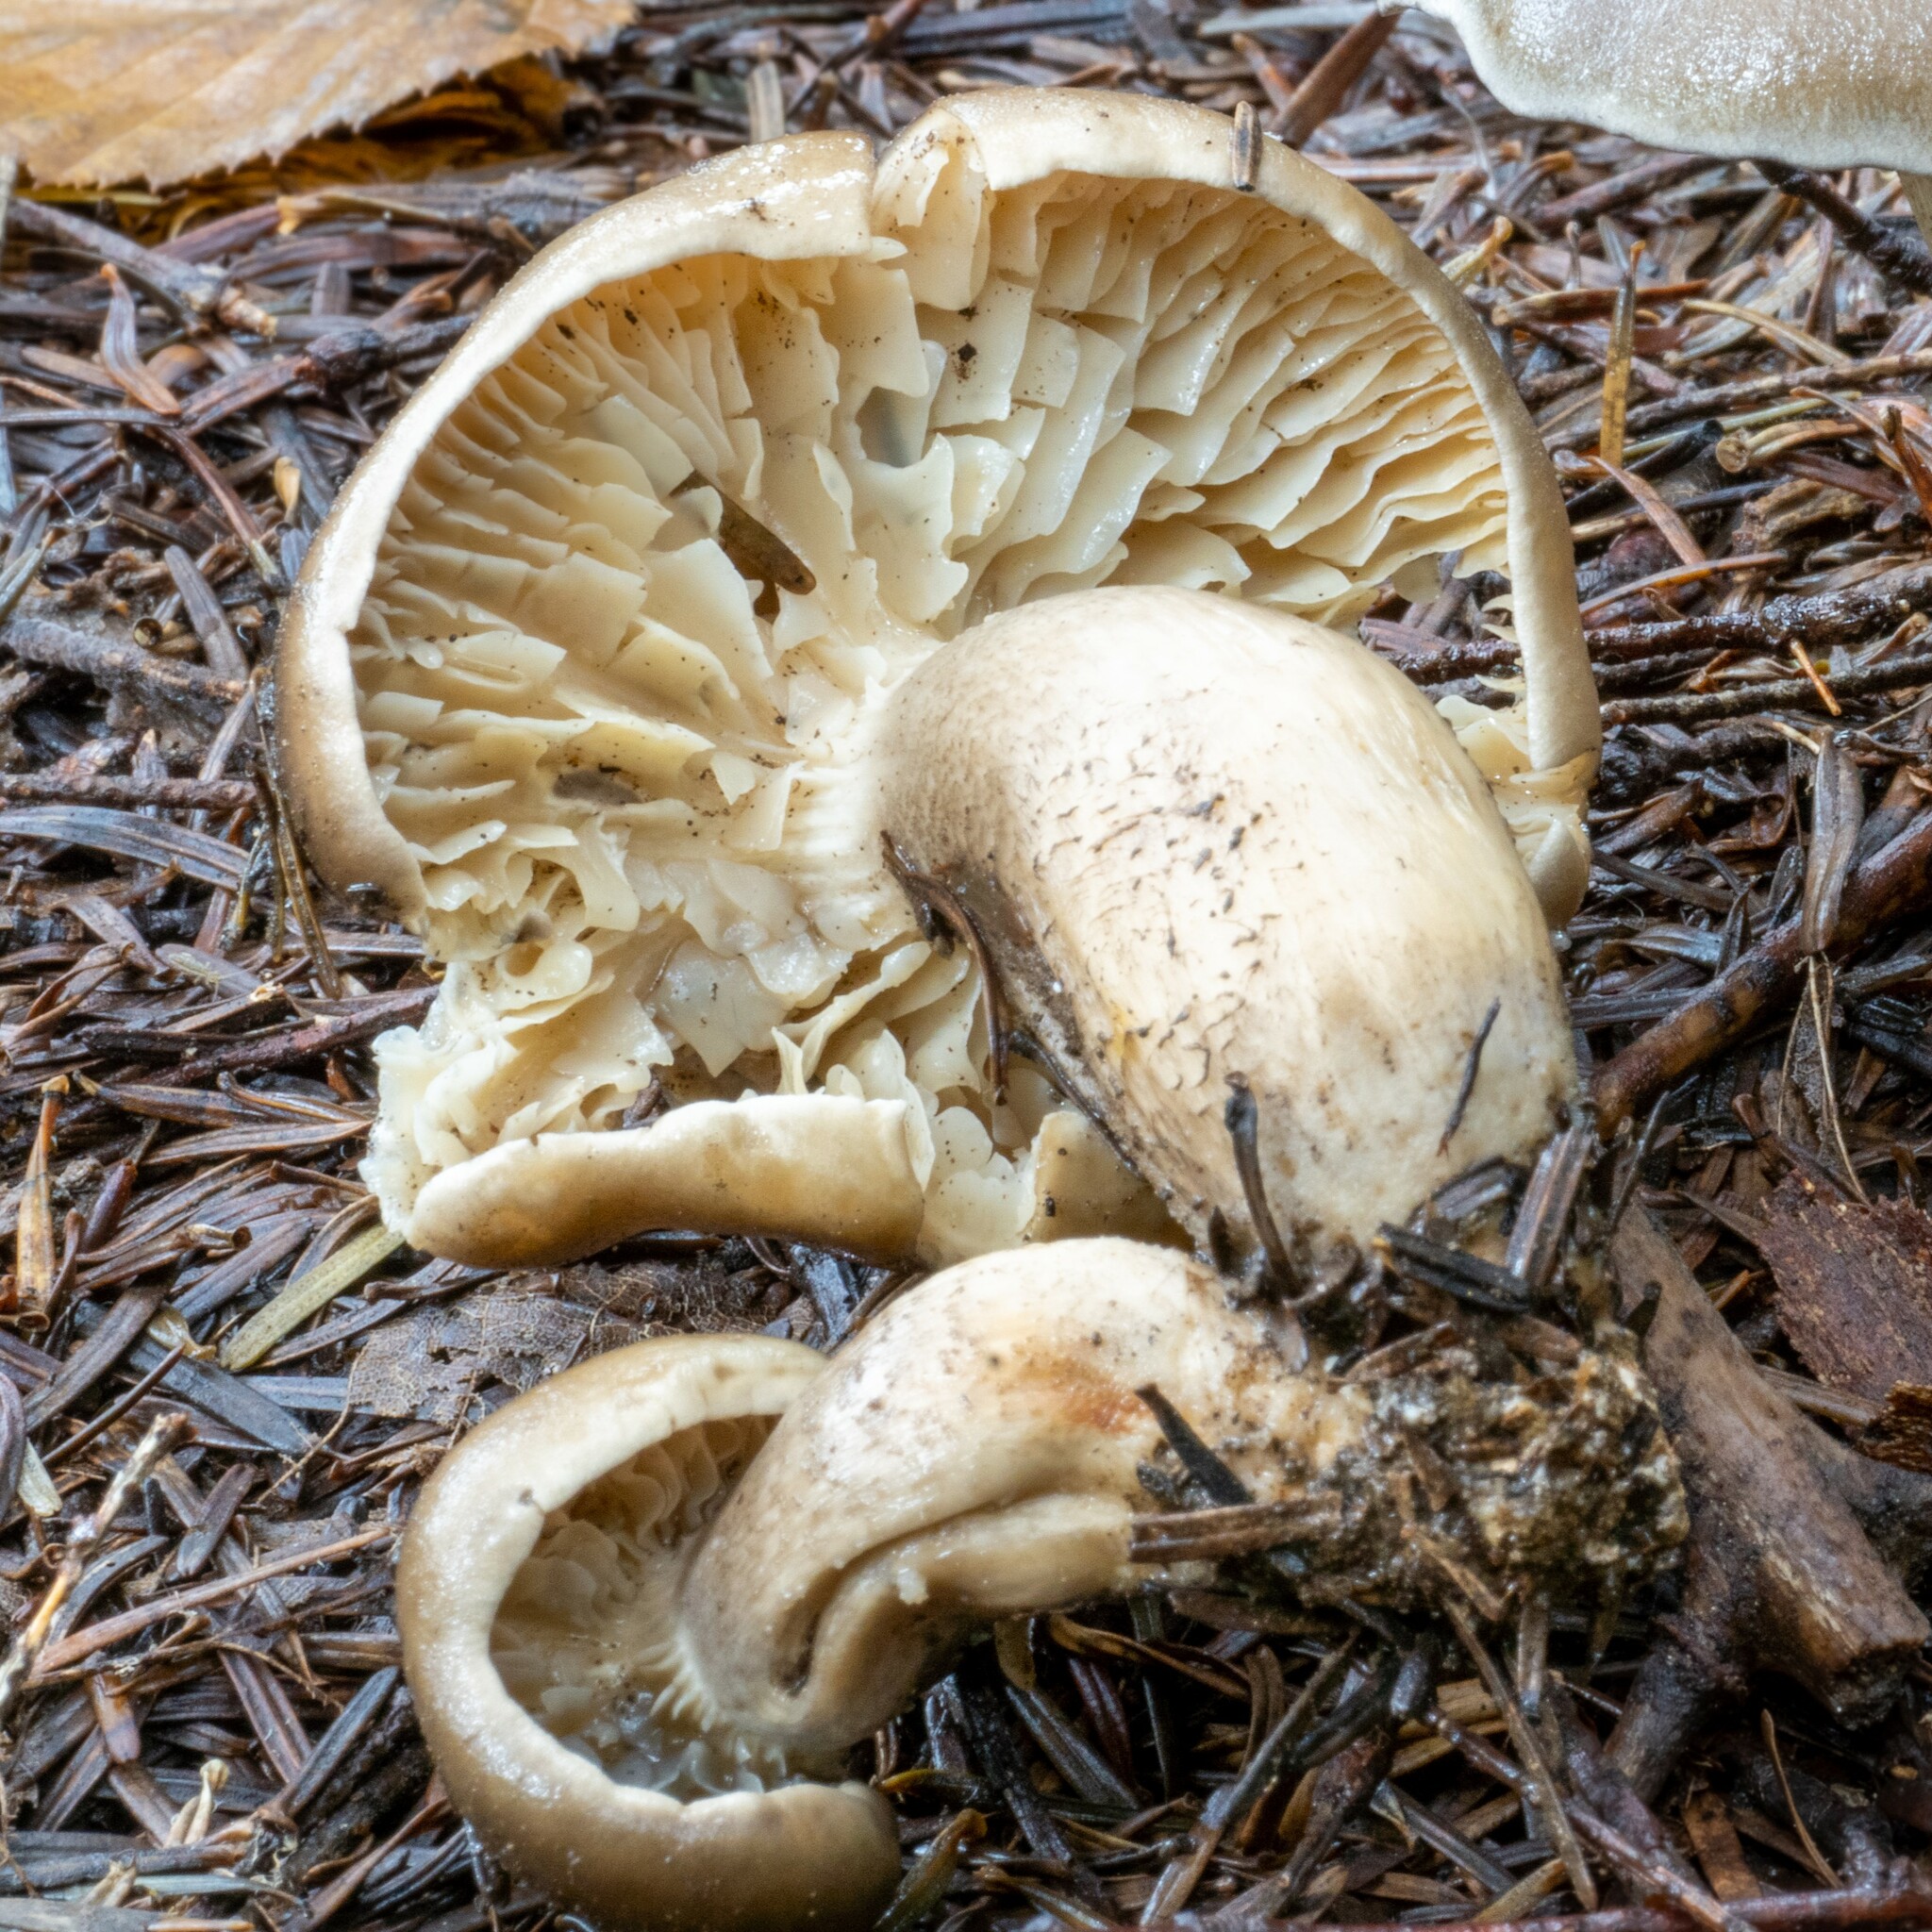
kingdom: Fungi
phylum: Basidiomycota
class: Agaricomycetes
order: Agaricales
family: Tricholomataceae
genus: Tricholoma
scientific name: Tricholoma saponaceum
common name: Soapy trich
